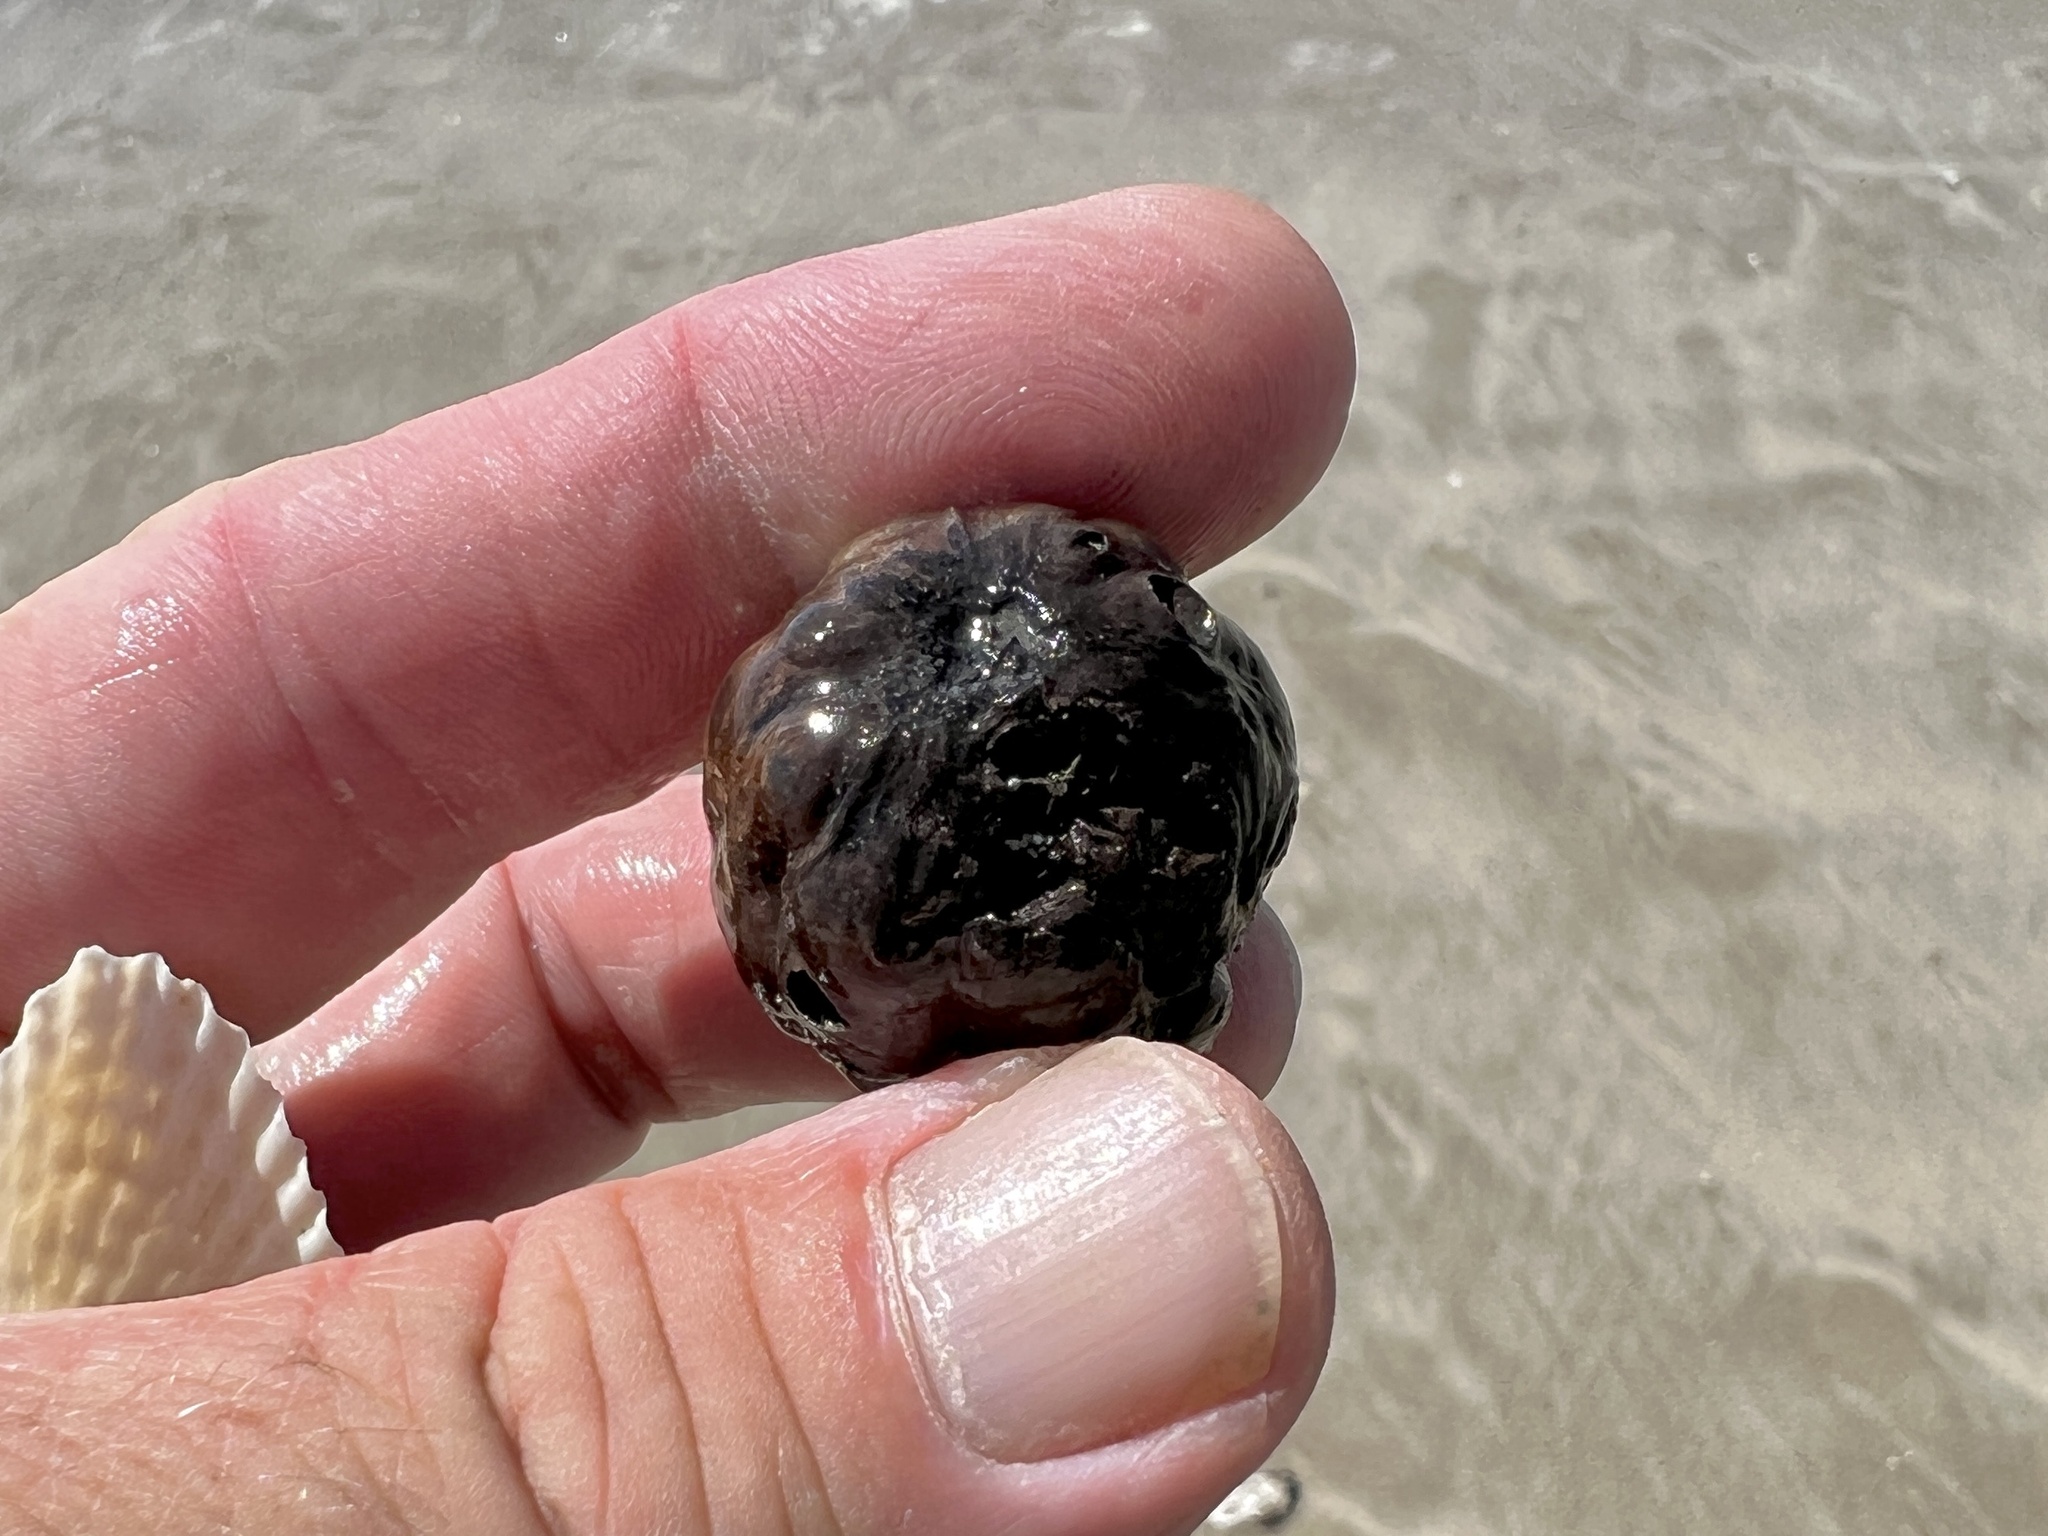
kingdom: Plantae
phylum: Tracheophyta
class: Magnoliopsida
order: Malpighiales
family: Humiriaceae
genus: Sacoglottis
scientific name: Sacoglottis amazonica
